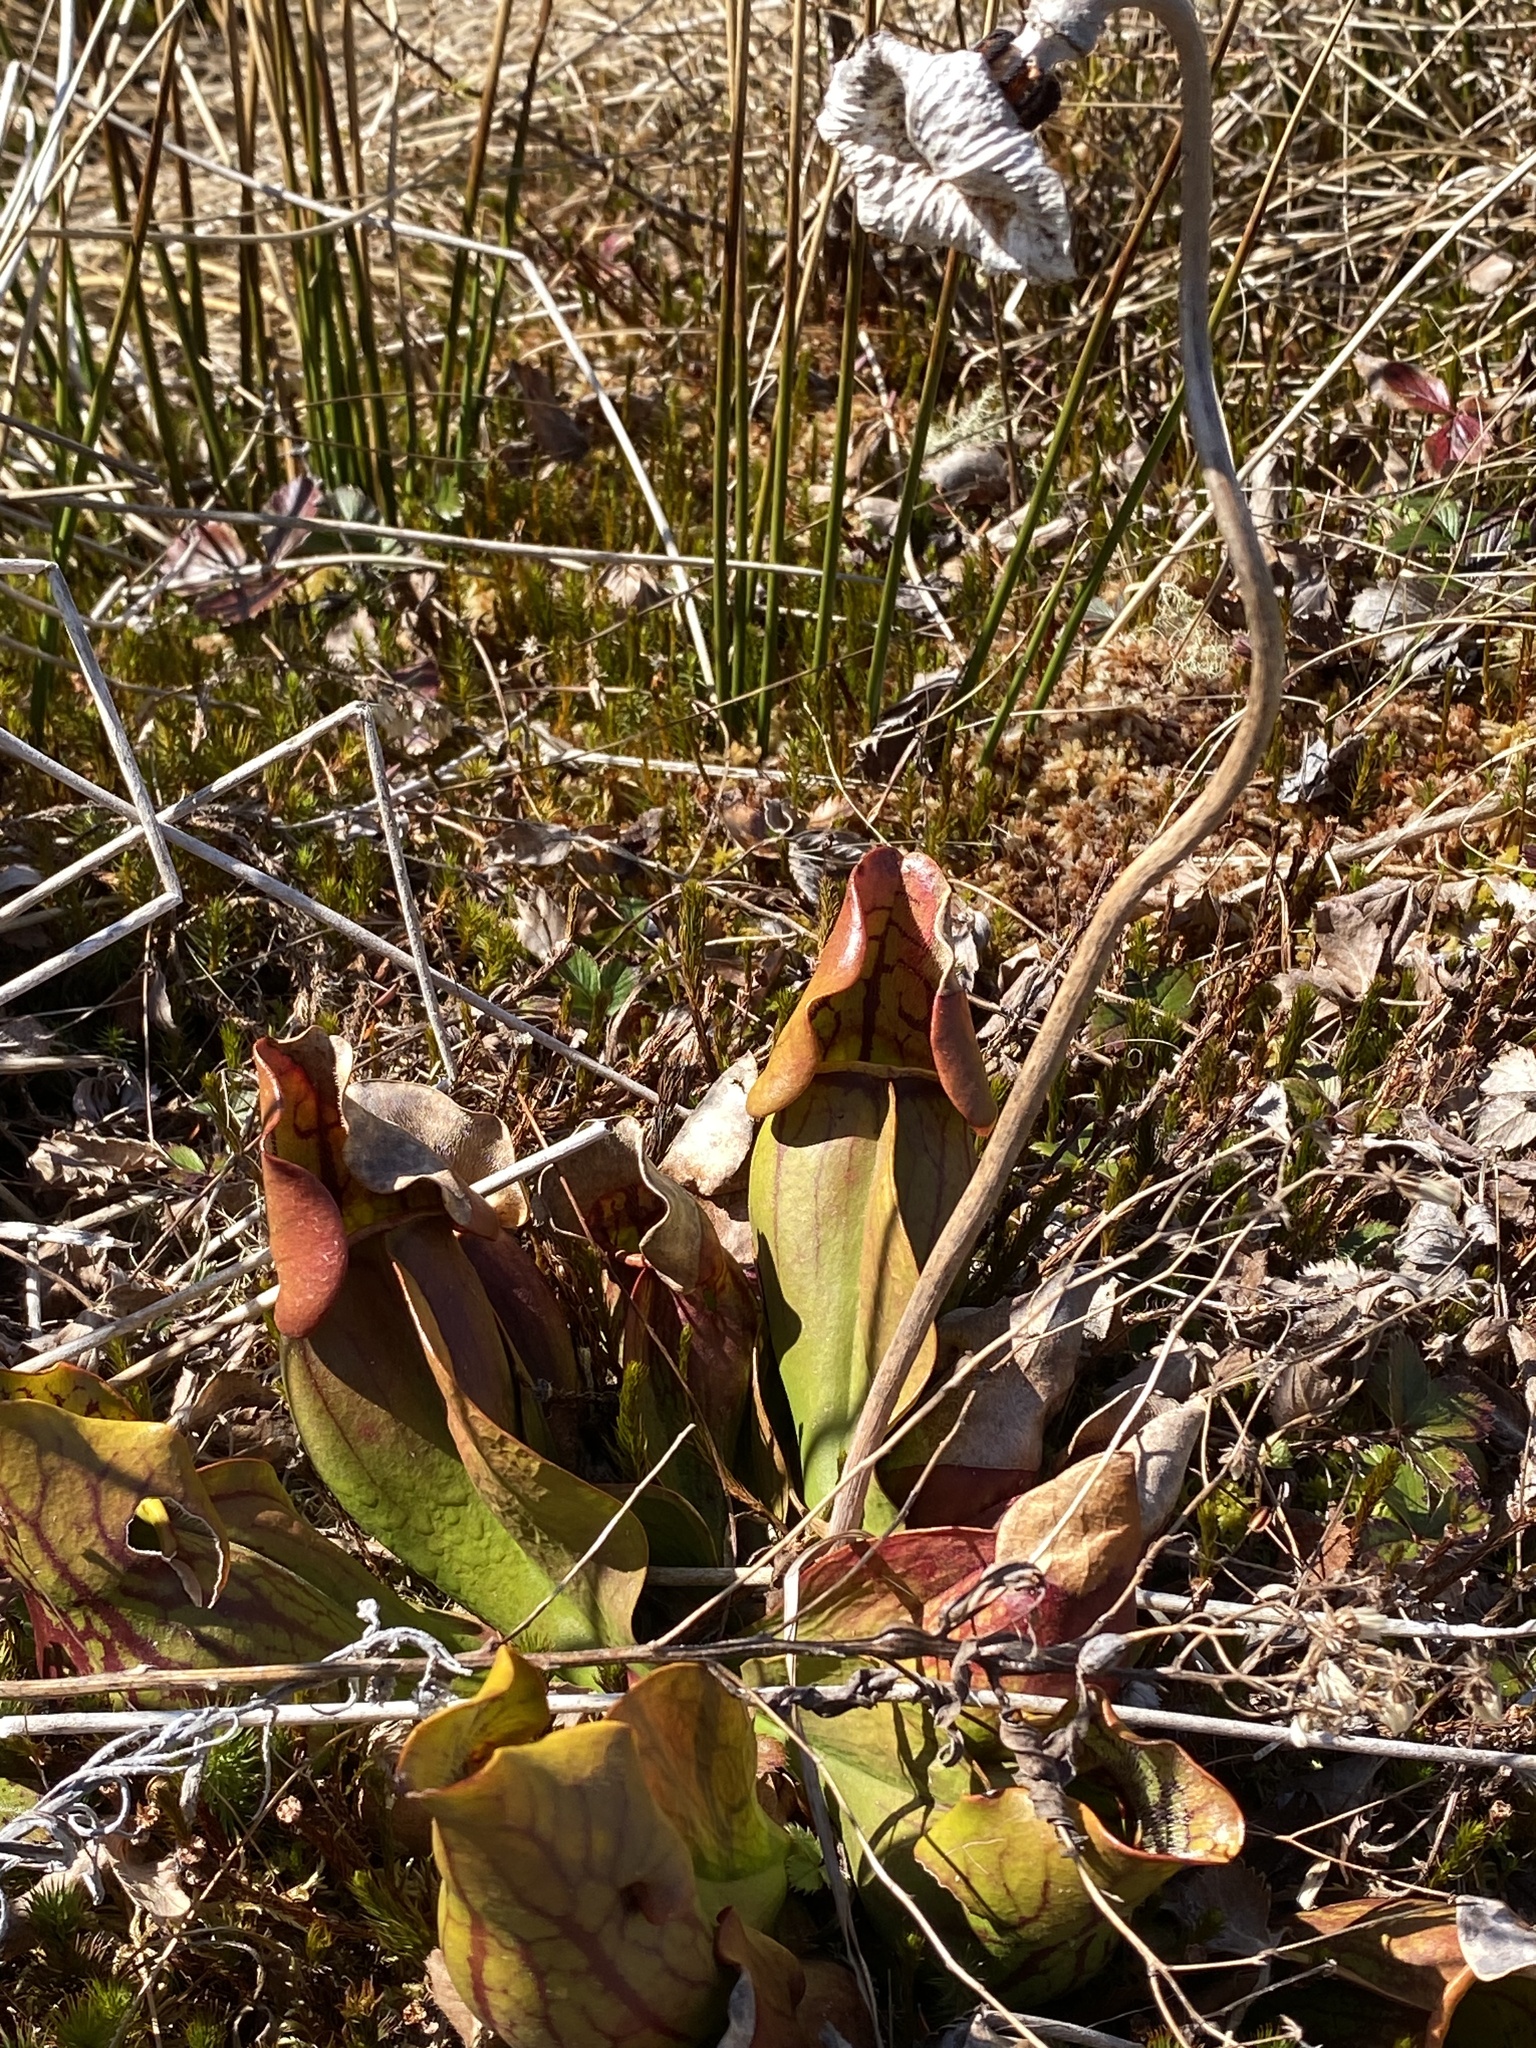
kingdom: Plantae
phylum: Tracheophyta
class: Magnoliopsida
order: Ericales
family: Sarraceniaceae
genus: Sarracenia
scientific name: Sarracenia purpurea
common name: Pitcherplant
